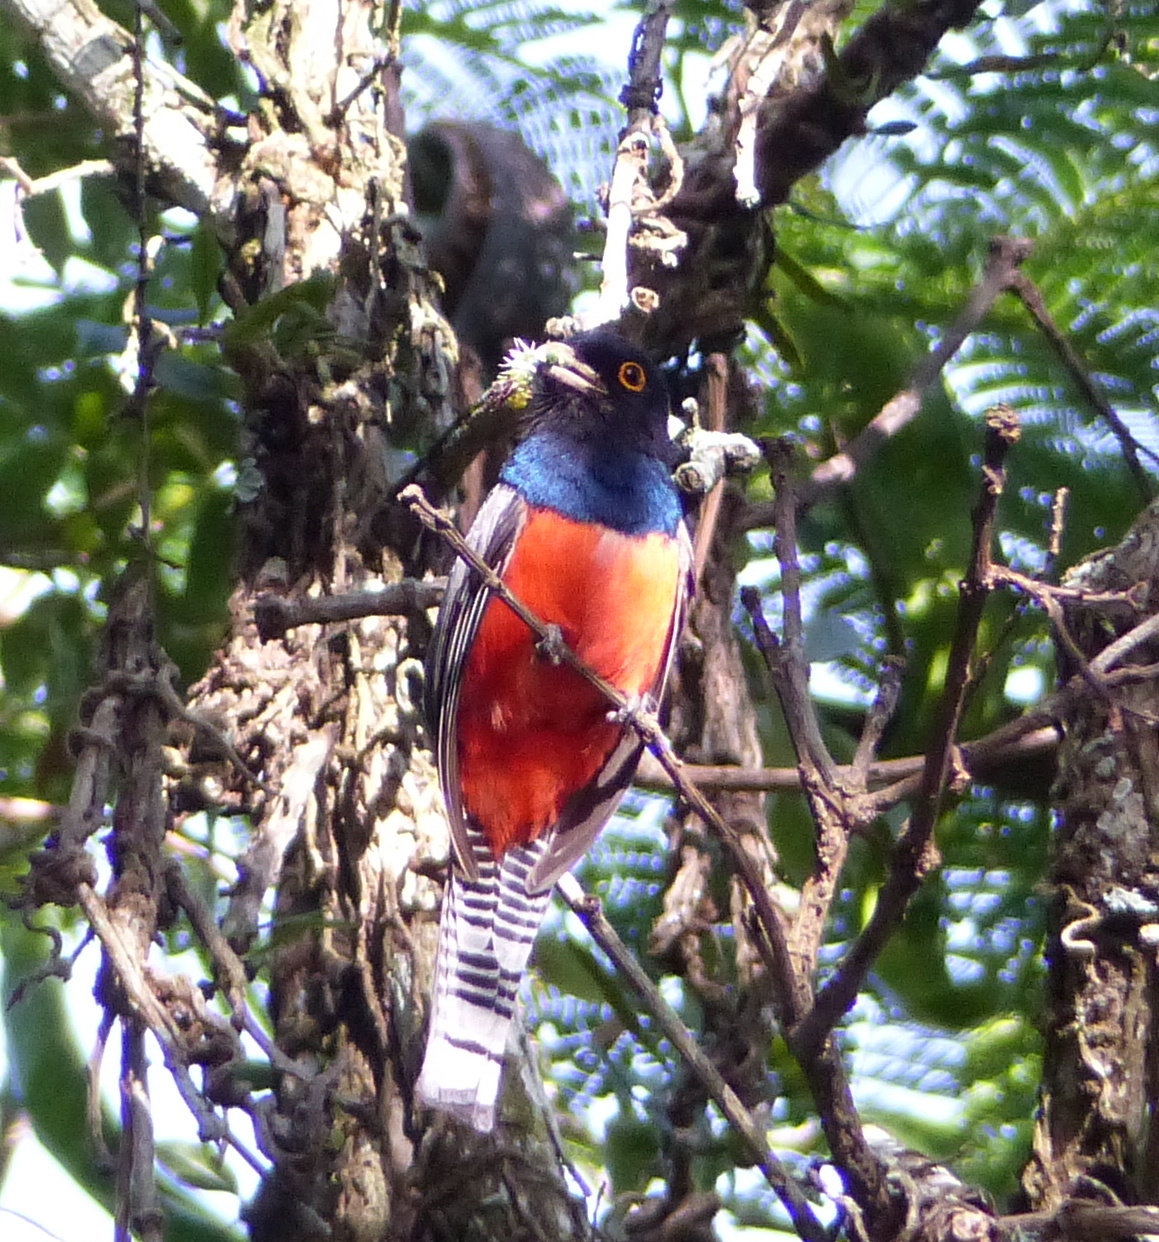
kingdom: Animalia
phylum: Chordata
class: Aves
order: Trogoniformes
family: Trogonidae
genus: Trogon
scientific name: Trogon curucui
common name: Blue-crowned trogon
